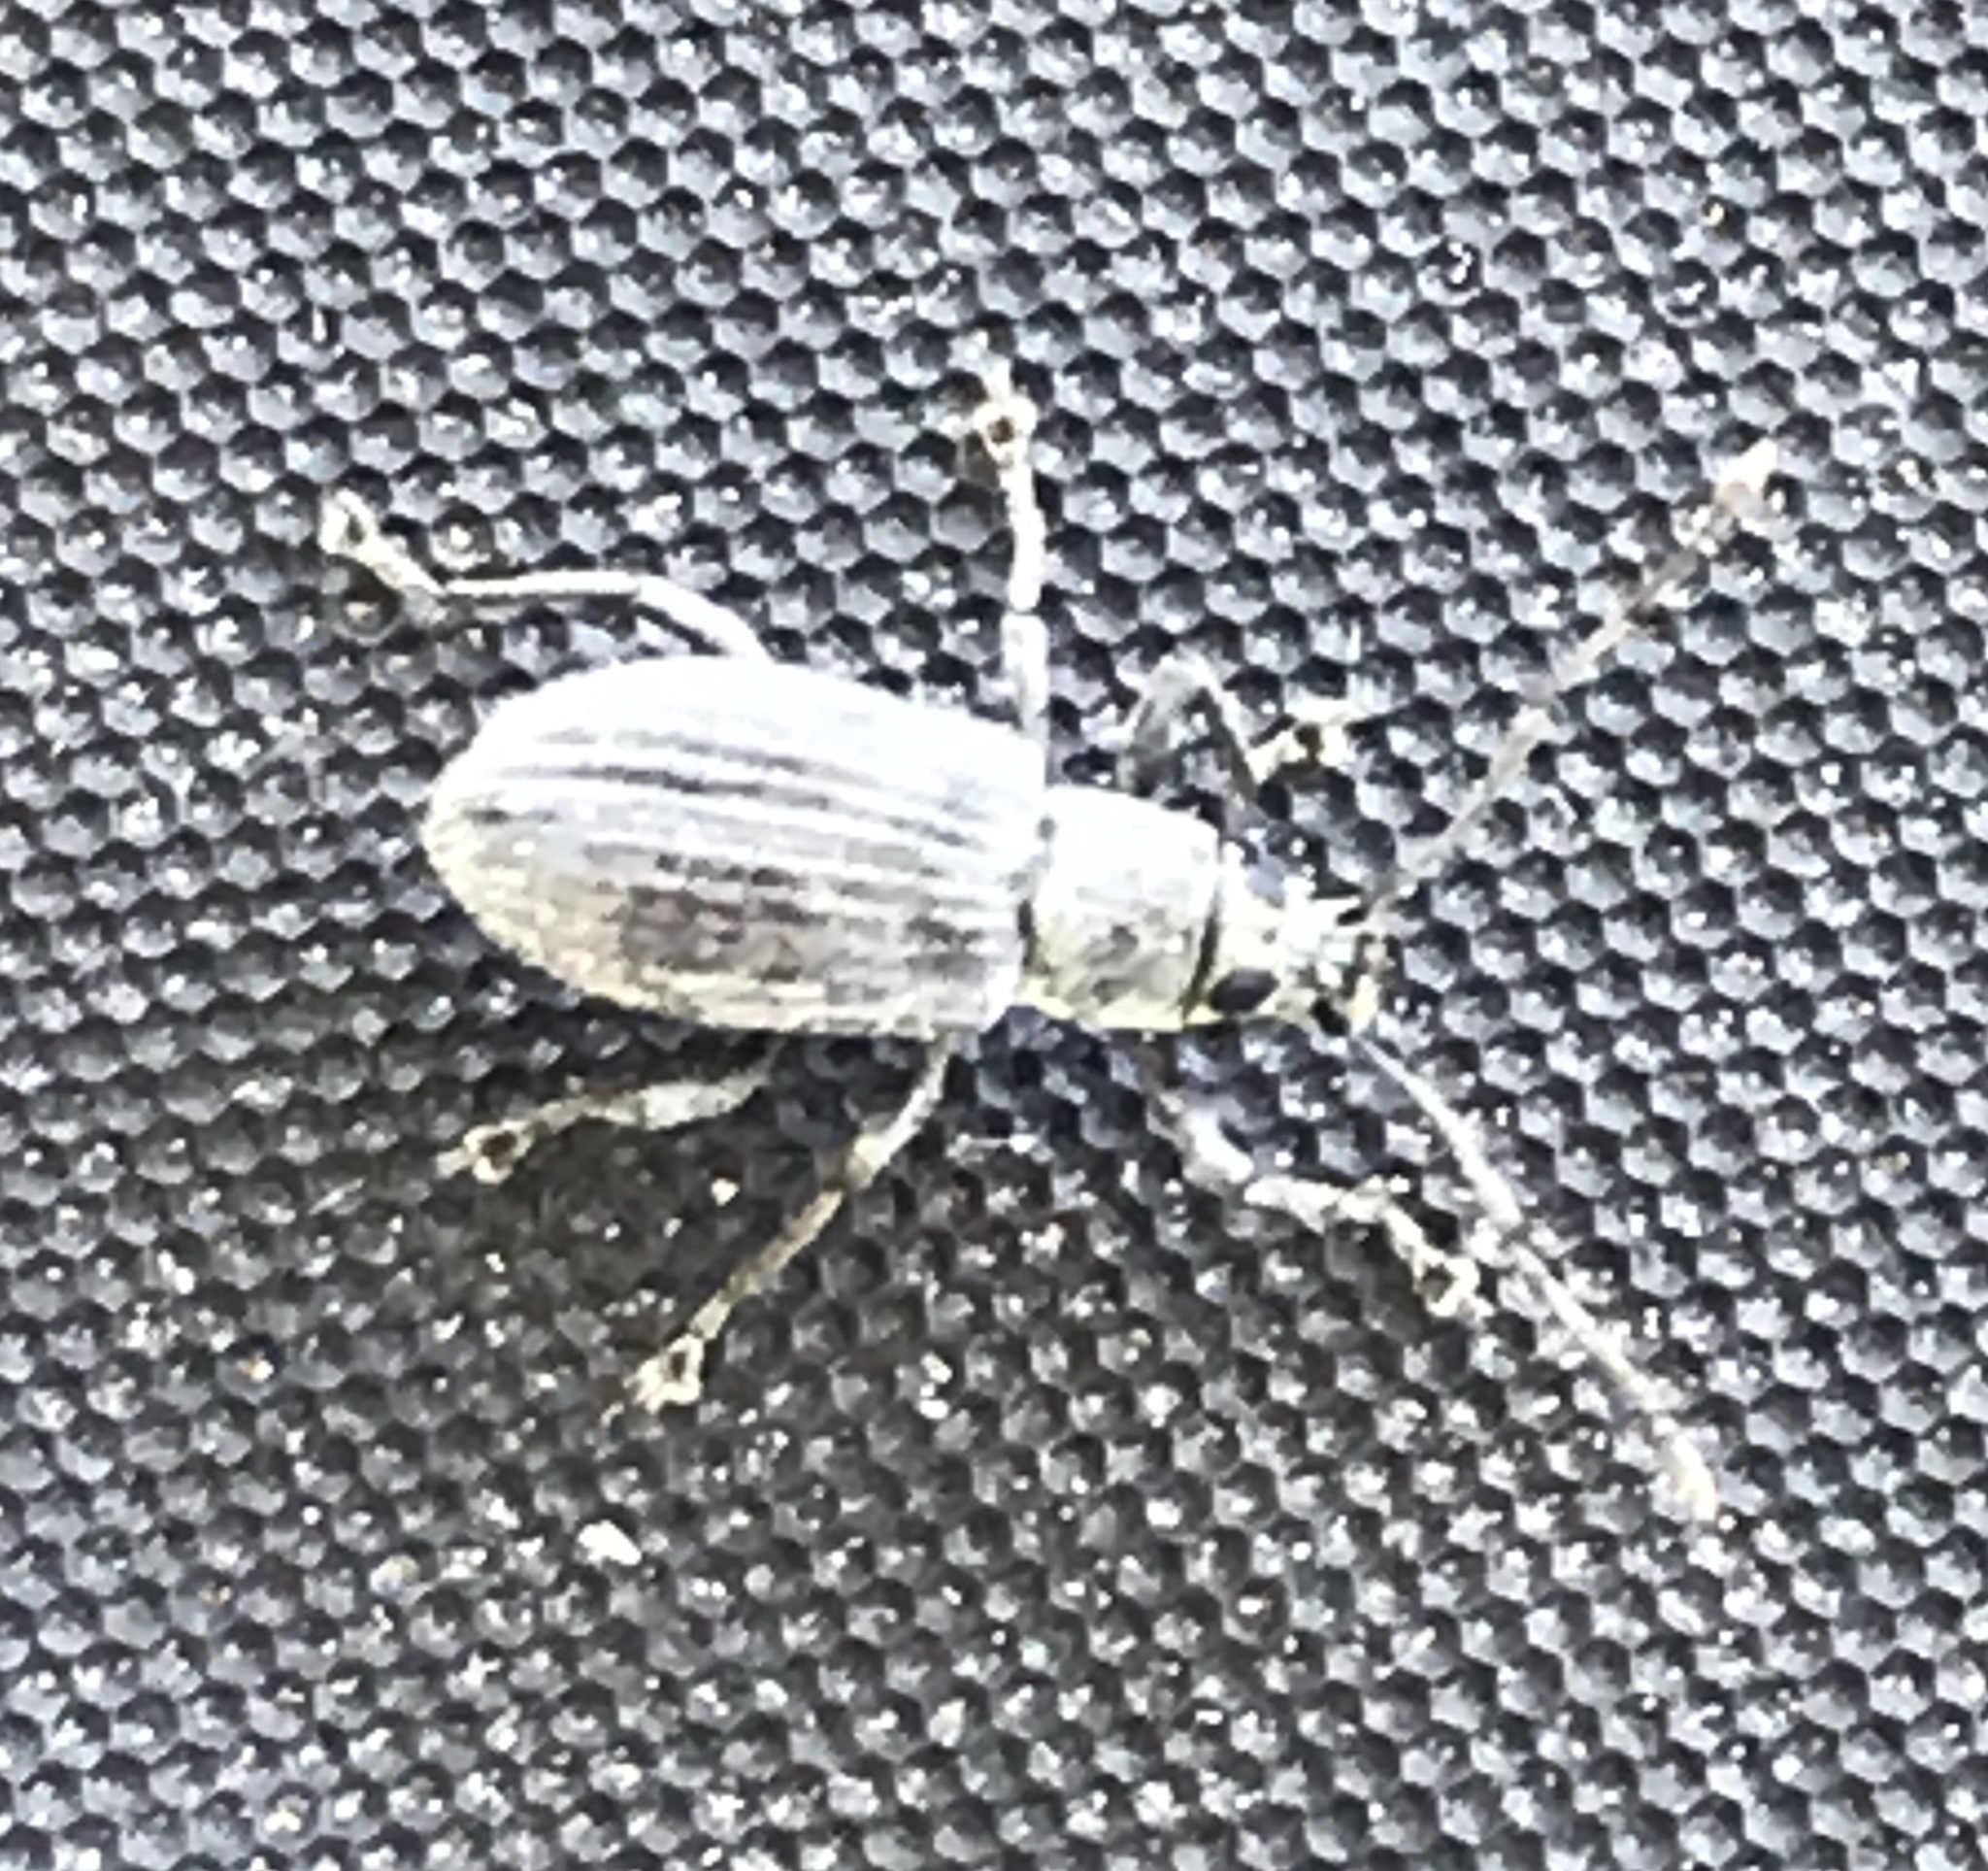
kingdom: Animalia
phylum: Arthropoda
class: Insecta
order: Coleoptera
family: Curculionidae
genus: Cyrtepistomus
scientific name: Cyrtepistomus castaneus
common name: Weevil
